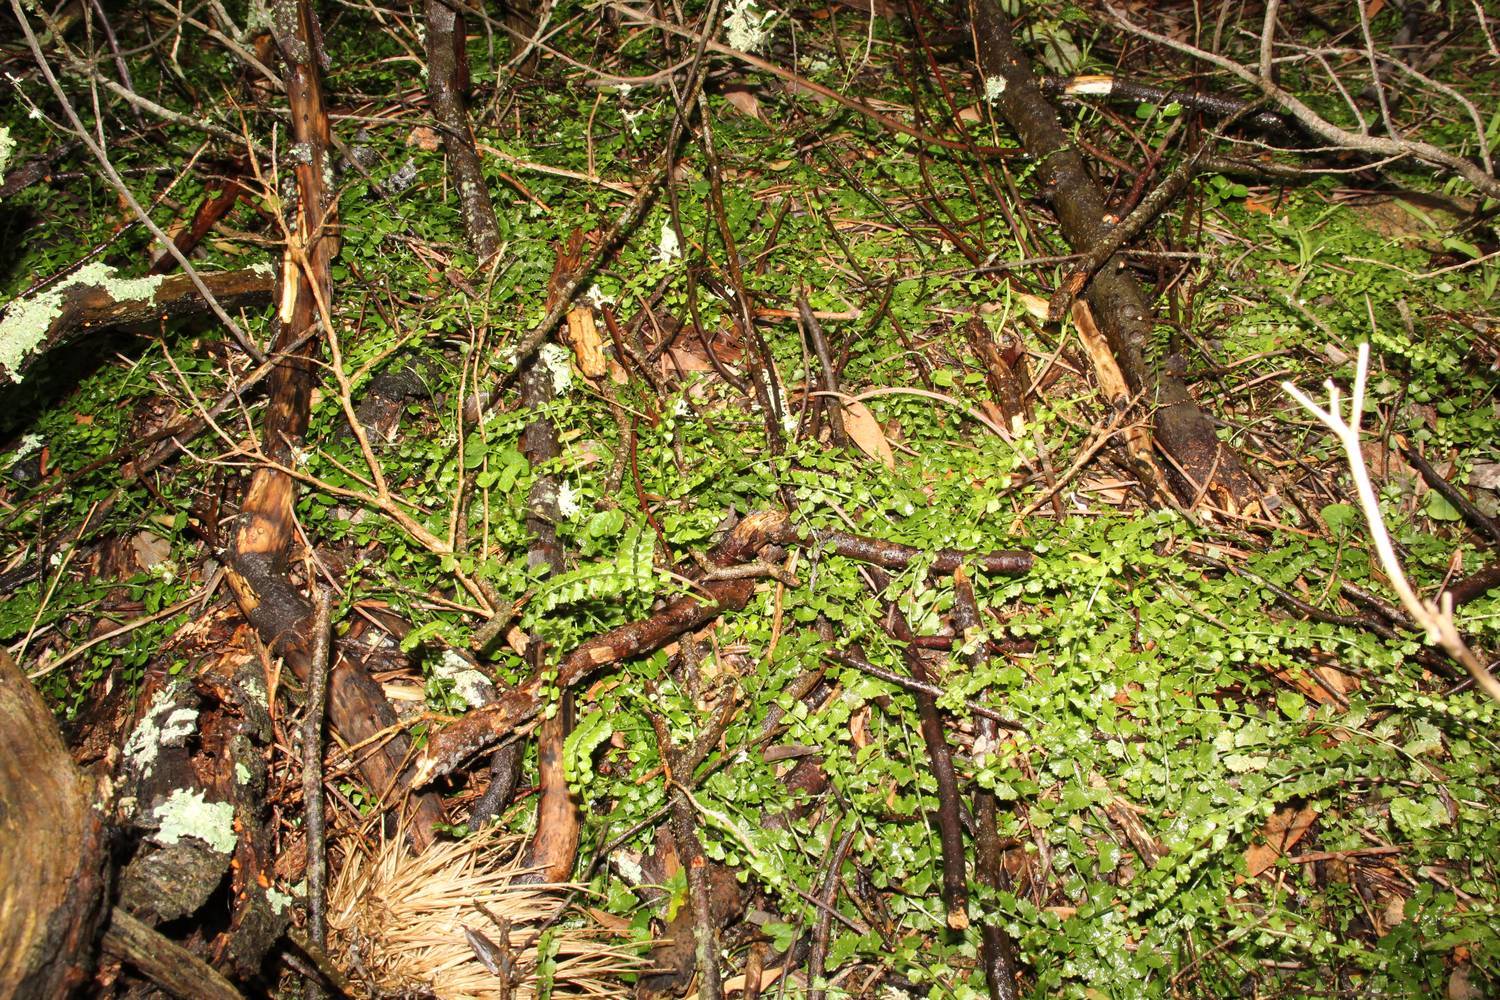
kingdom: Plantae
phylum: Tracheophyta
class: Polypodiopsida
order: Polypodiales
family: Aspleniaceae
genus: Asplenium
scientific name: Asplenium flabellifolium
